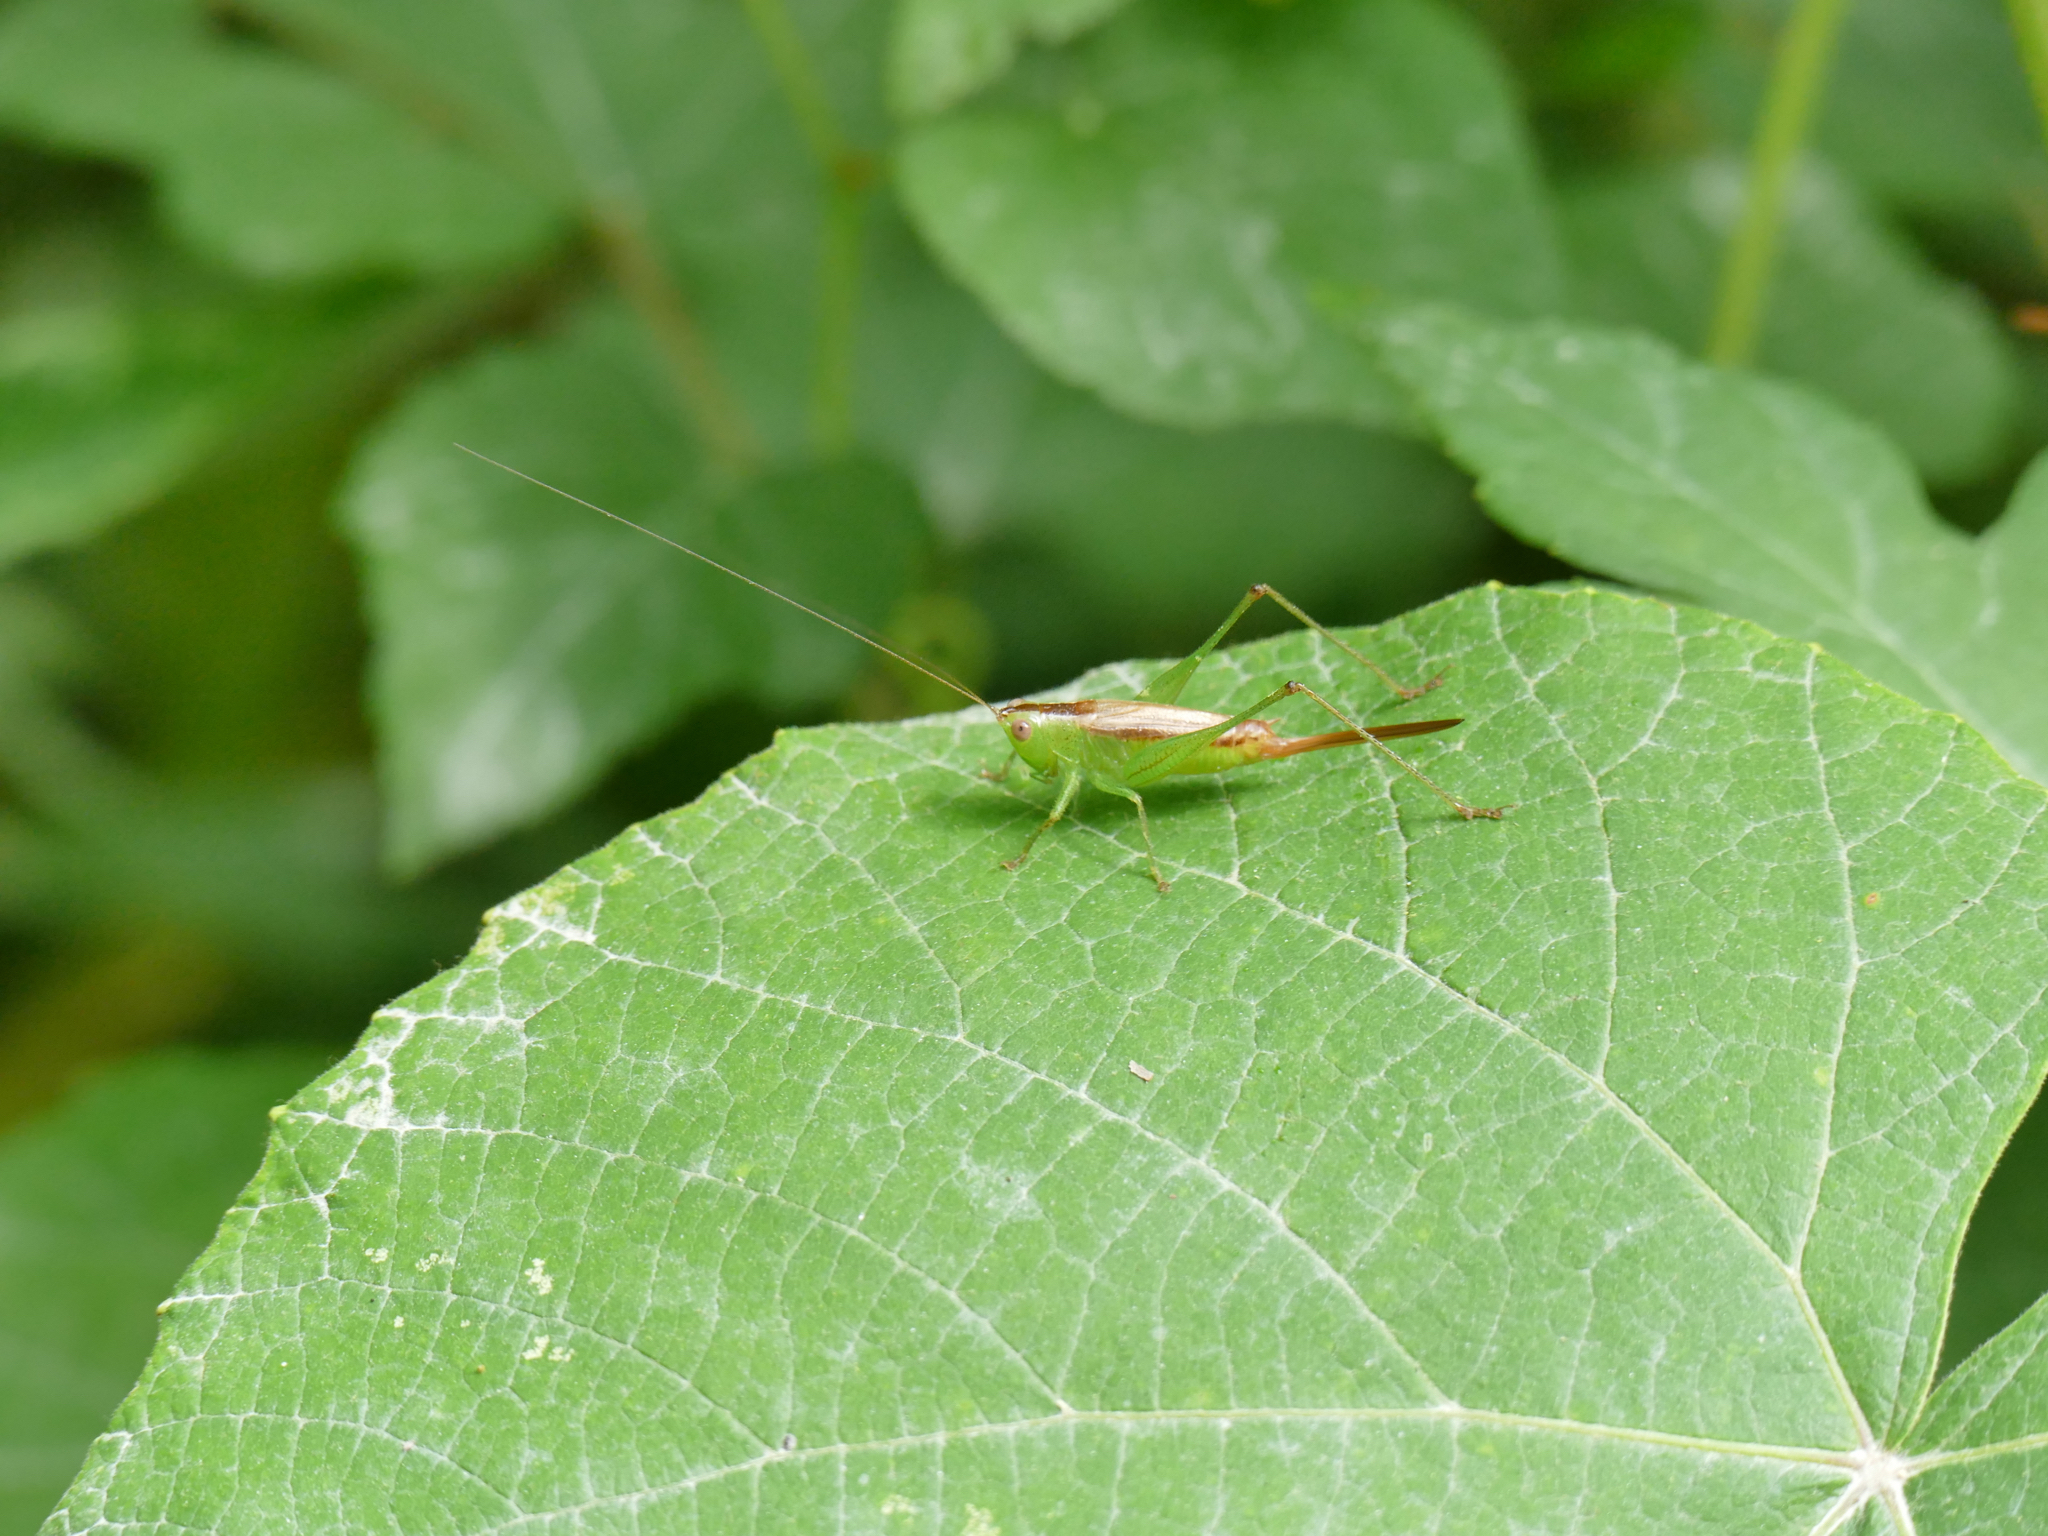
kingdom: Animalia
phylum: Arthropoda
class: Insecta
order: Orthoptera
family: Tettigoniidae
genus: Conocephalus
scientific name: Conocephalus brevipennis
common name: Short-winged meadow katydid
